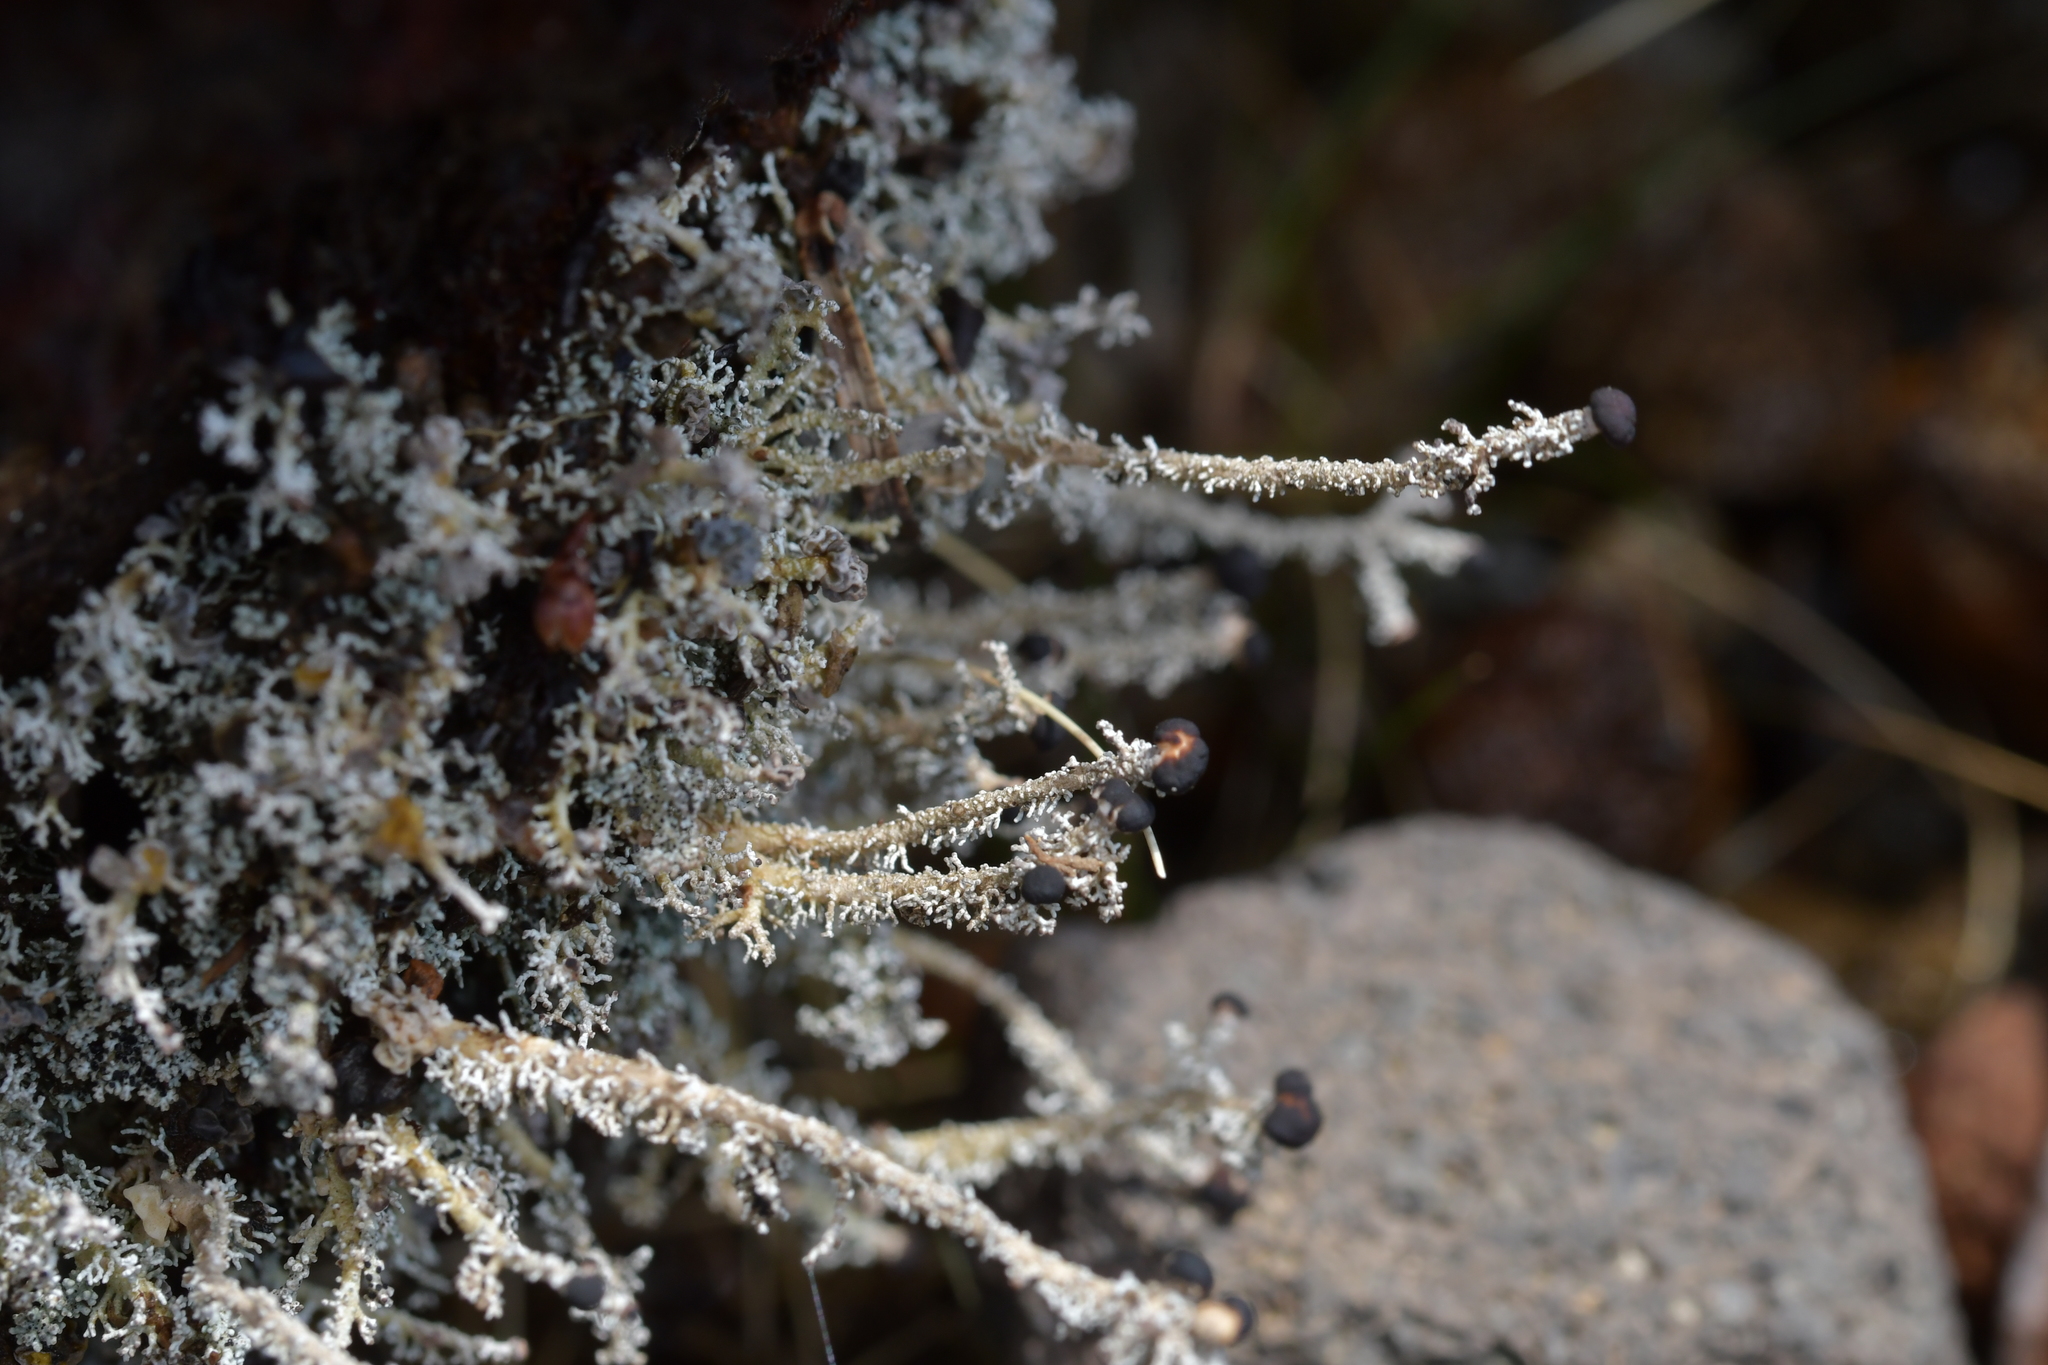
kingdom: Fungi
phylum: Ascomycota
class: Lecanoromycetes
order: Lecanorales
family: Stereocaulaceae
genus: Stereocaulon
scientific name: Stereocaulon ramulosum
